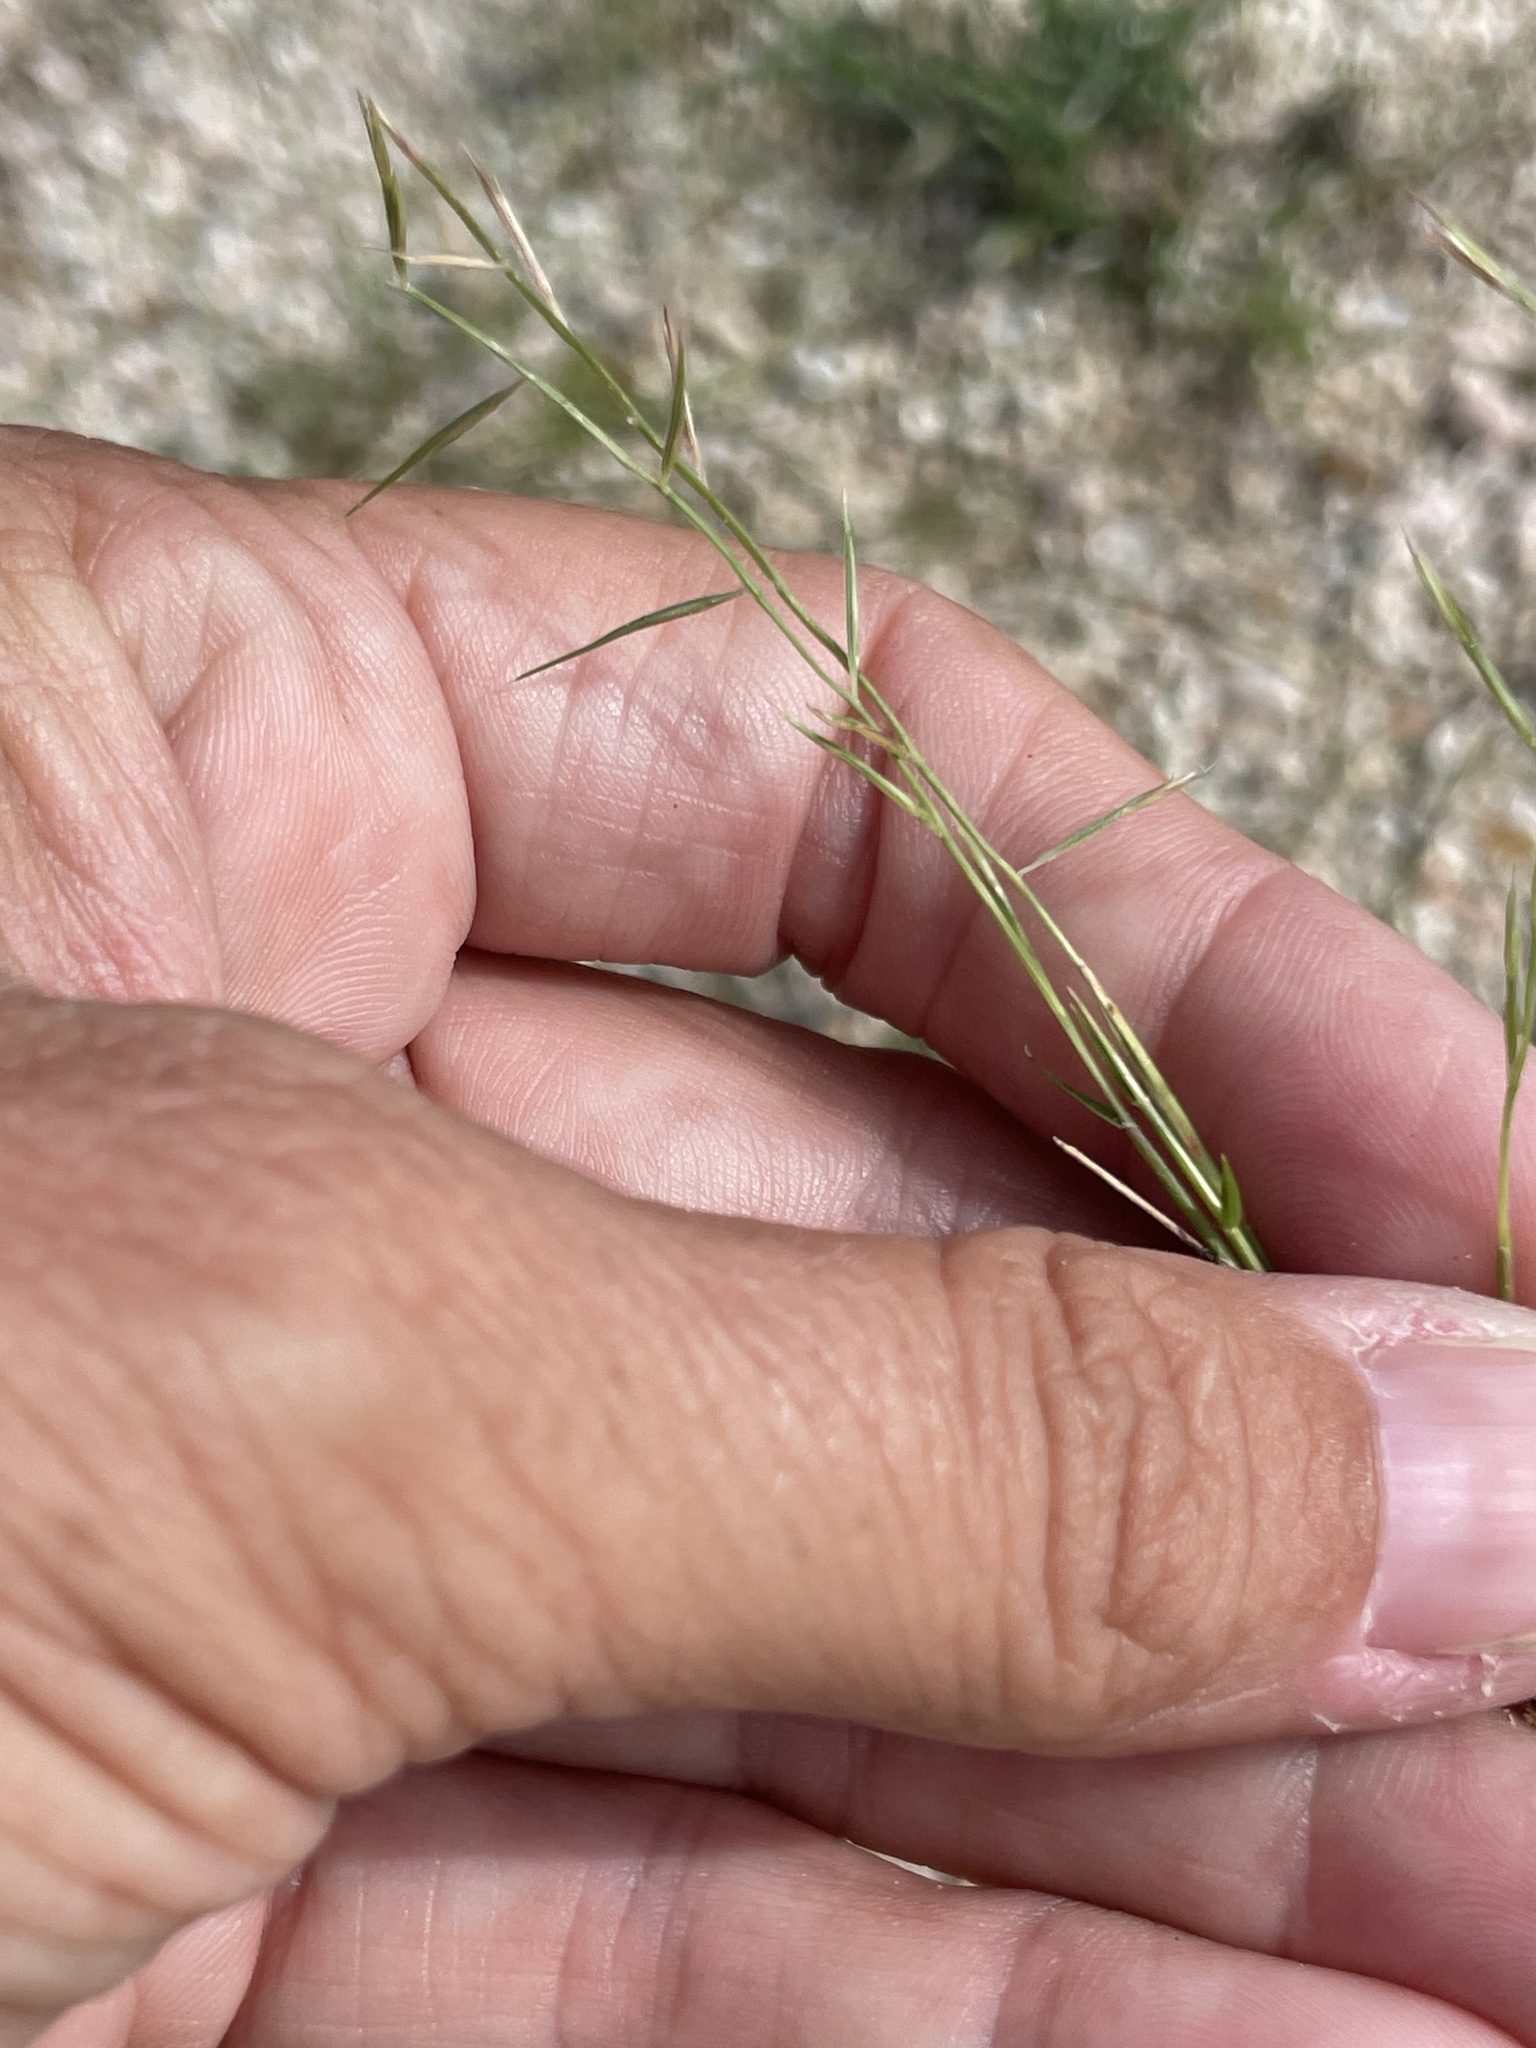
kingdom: Plantae
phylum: Tracheophyta
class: Liliopsida
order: Poales
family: Poaceae
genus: Bouteloua
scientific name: Bouteloua aristidoides
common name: Needle grama
